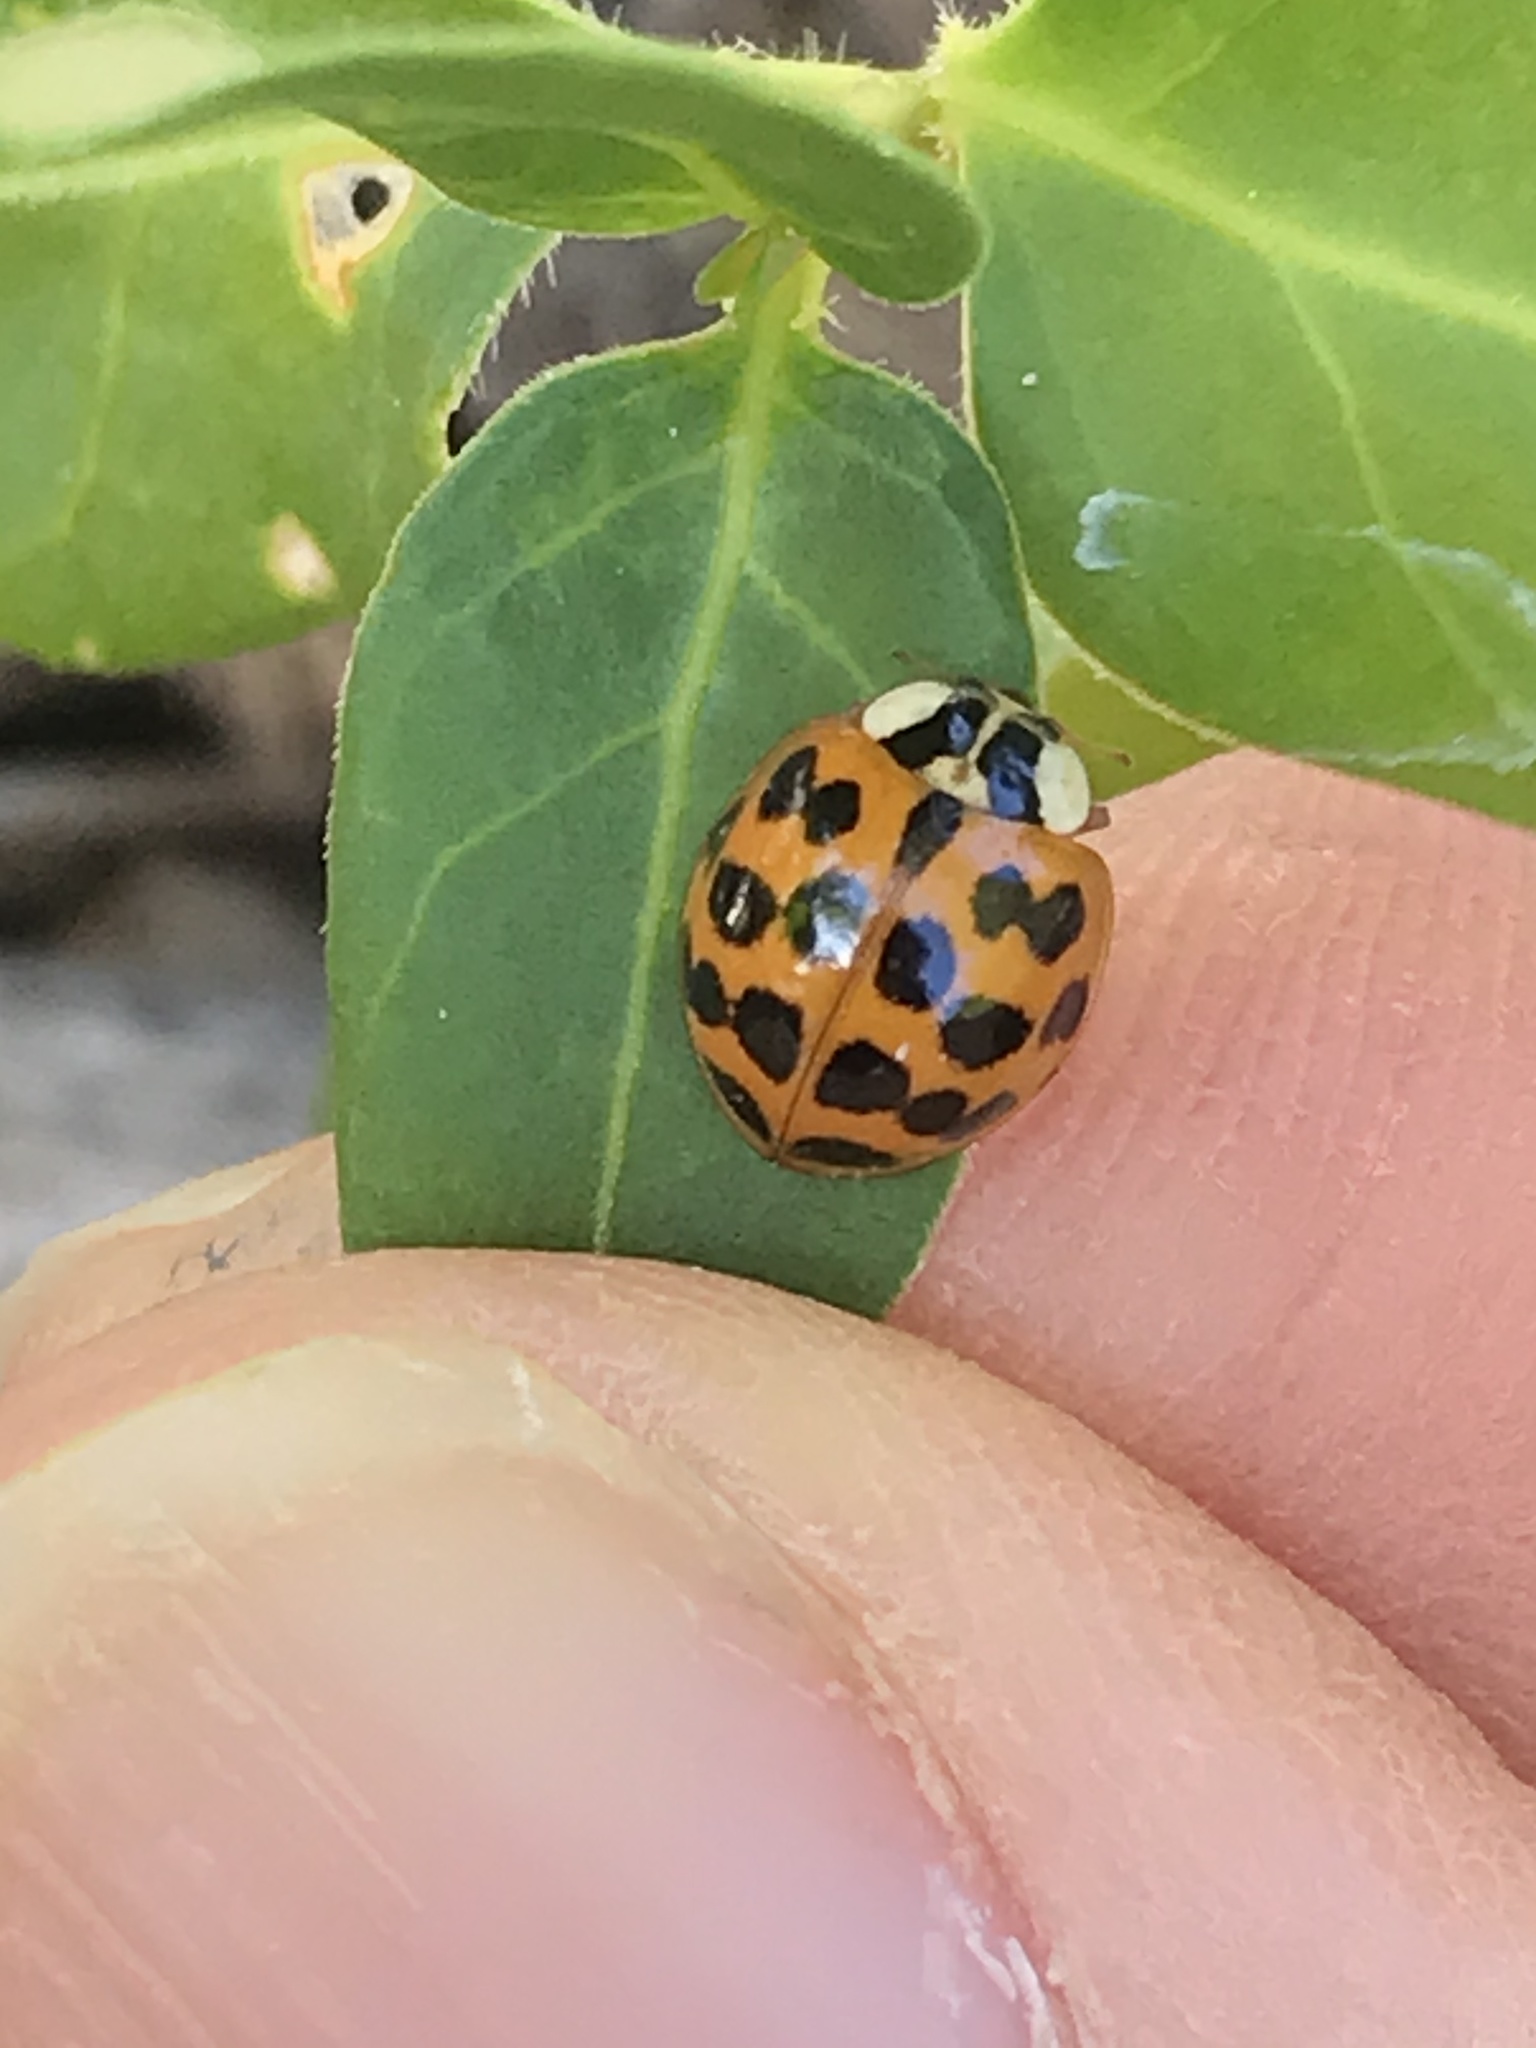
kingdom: Animalia
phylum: Arthropoda
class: Insecta
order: Coleoptera
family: Coccinellidae
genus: Harmonia
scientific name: Harmonia axyridis
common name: Harlequin ladybird
